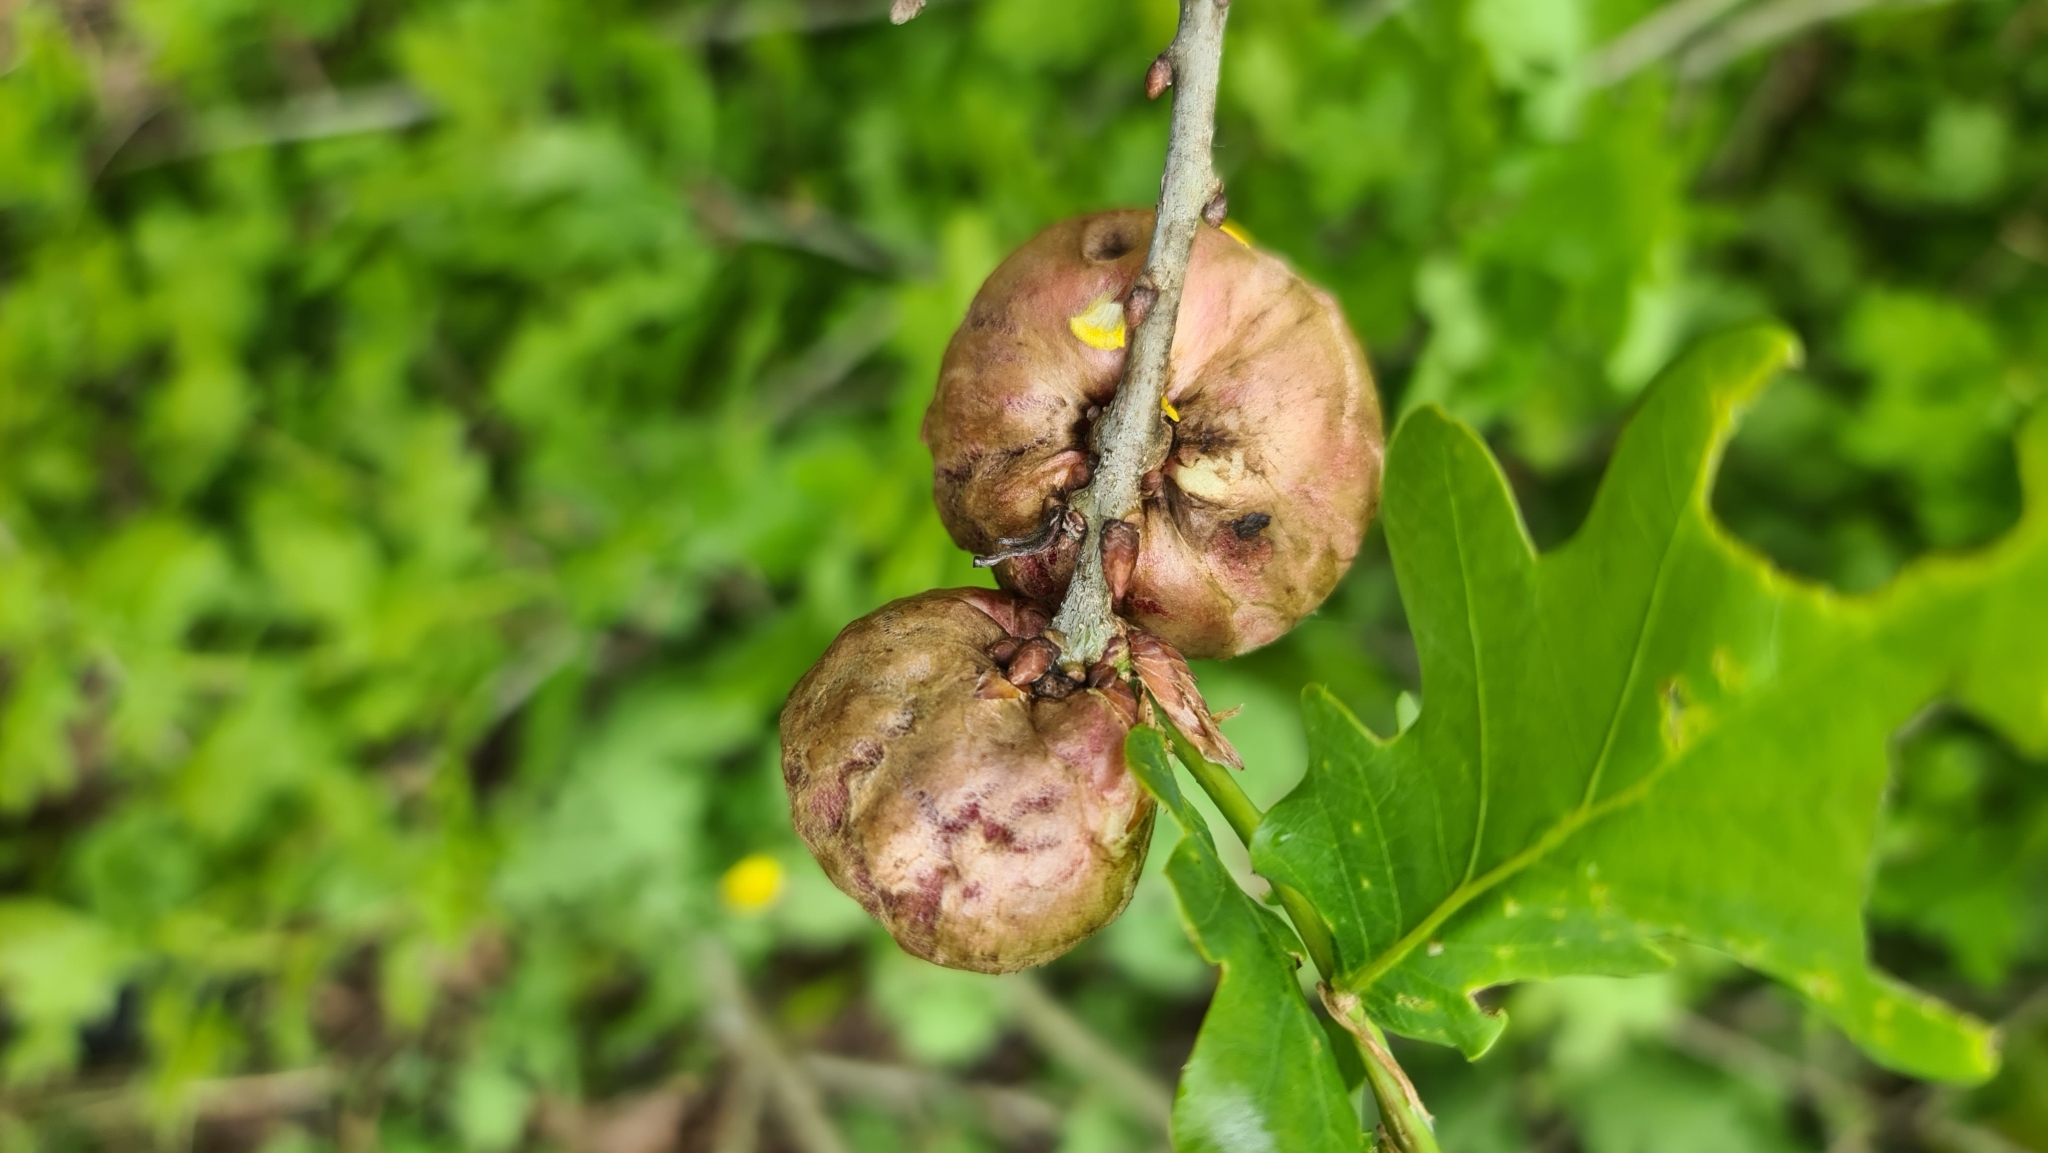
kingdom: Animalia
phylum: Arthropoda
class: Insecta
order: Hymenoptera
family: Cynipidae
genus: Biorhiza
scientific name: Biorhiza pallida
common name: Oak apple
